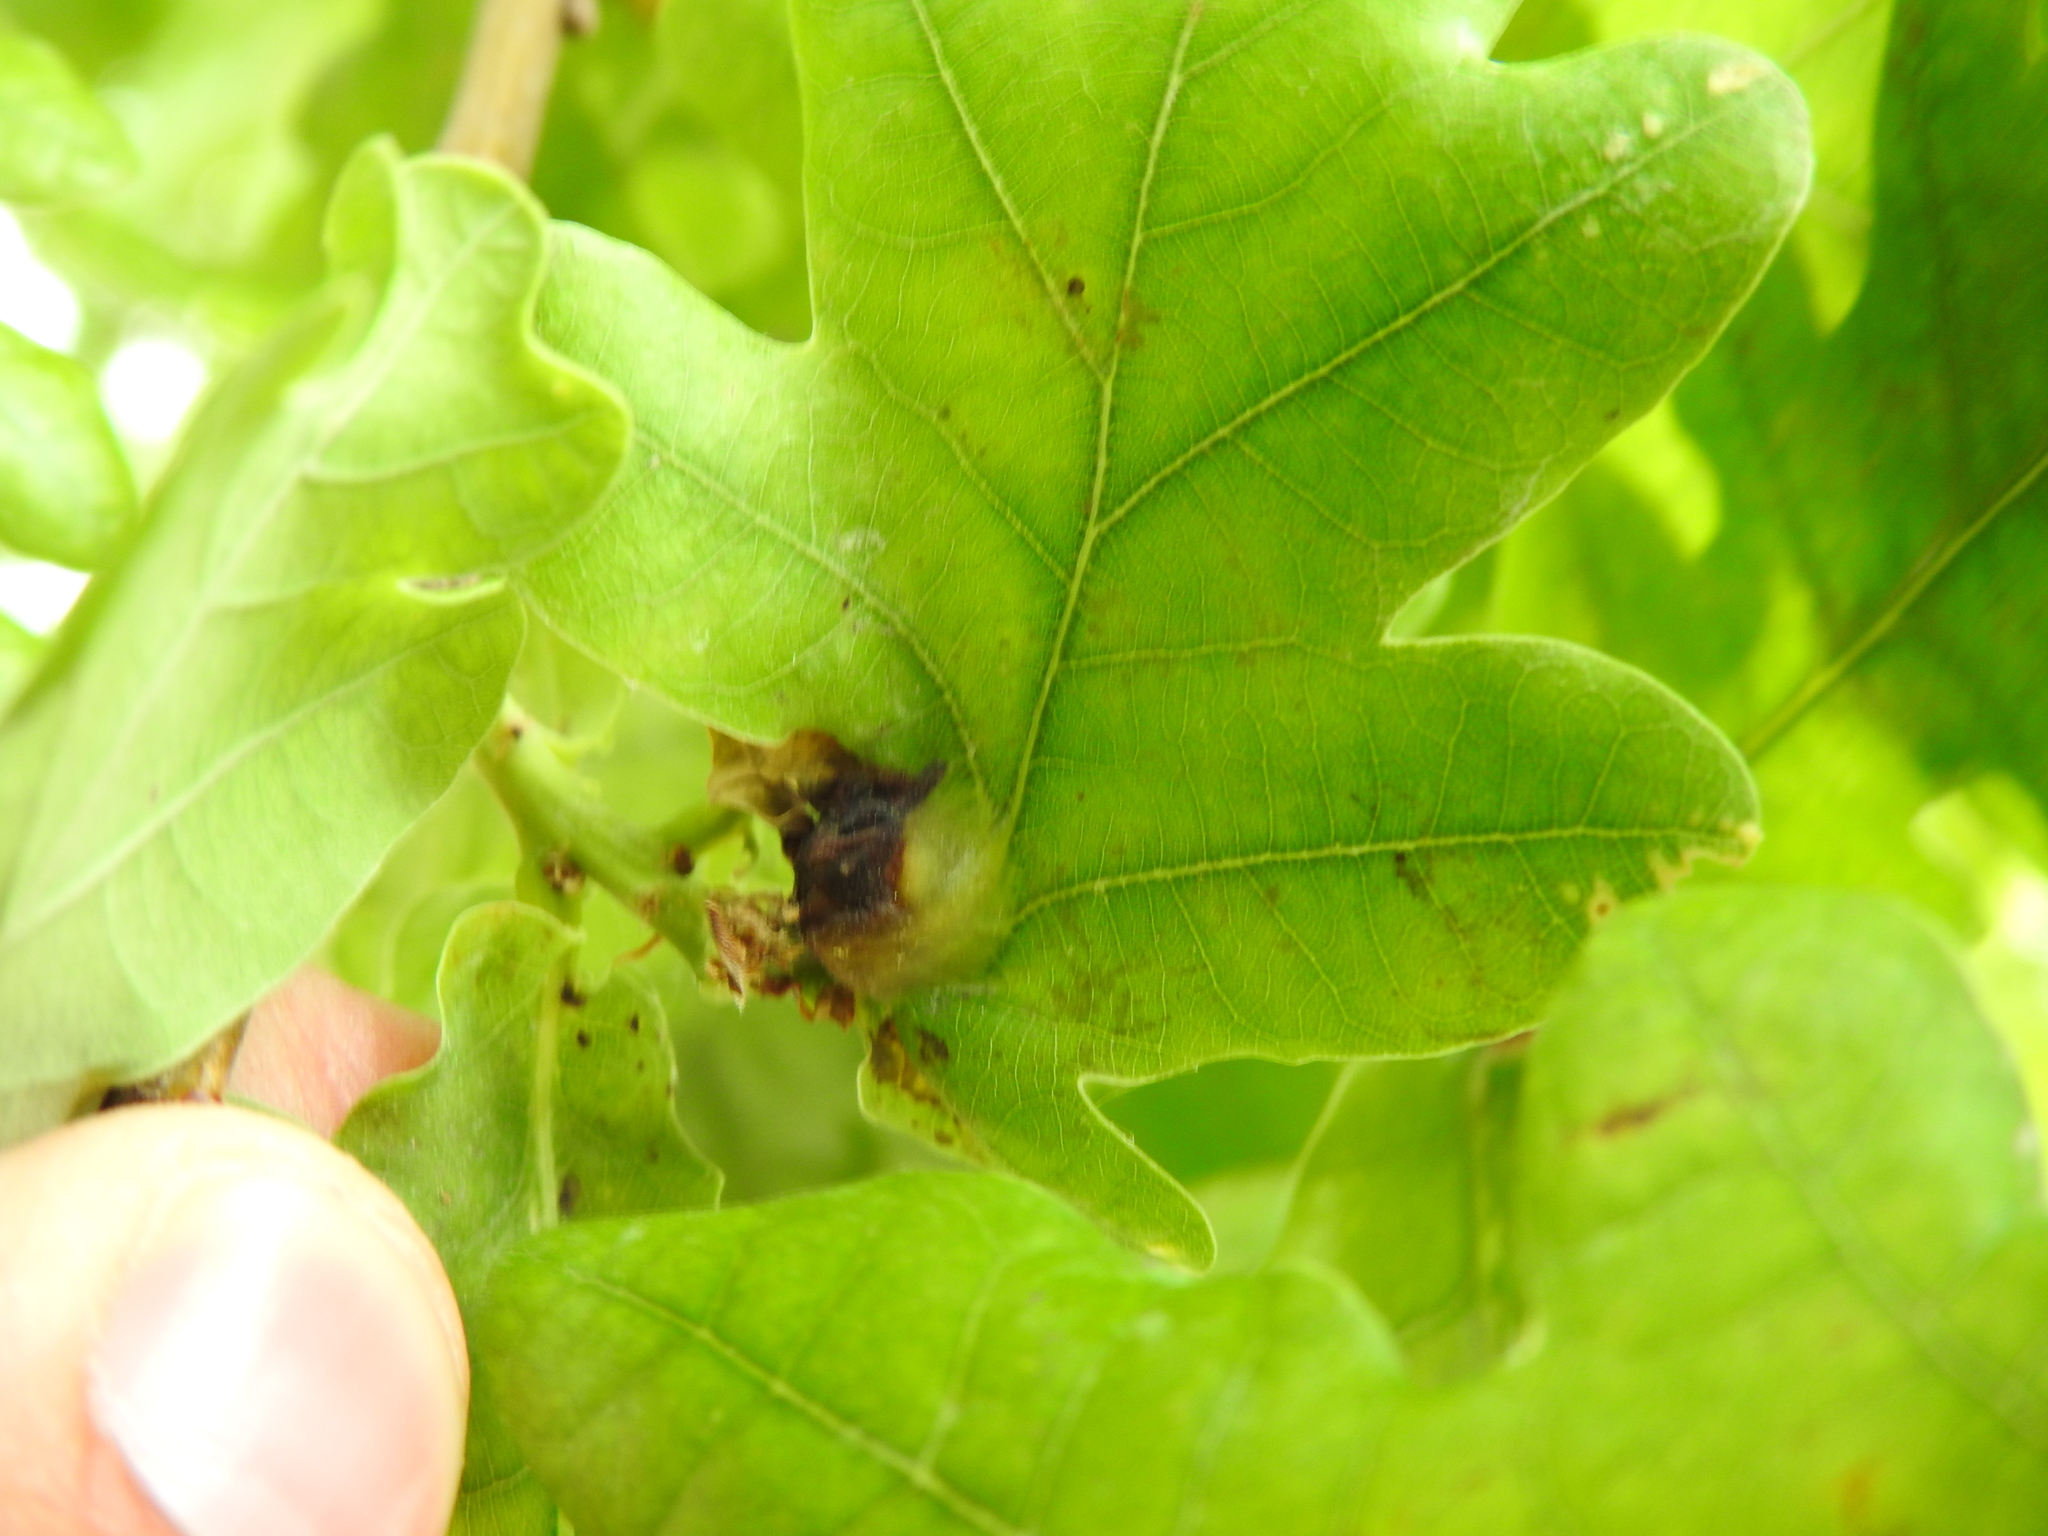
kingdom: Animalia
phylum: Arthropoda
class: Insecta
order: Hymenoptera
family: Cynipidae
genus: Andricus
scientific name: Andricus curvator
